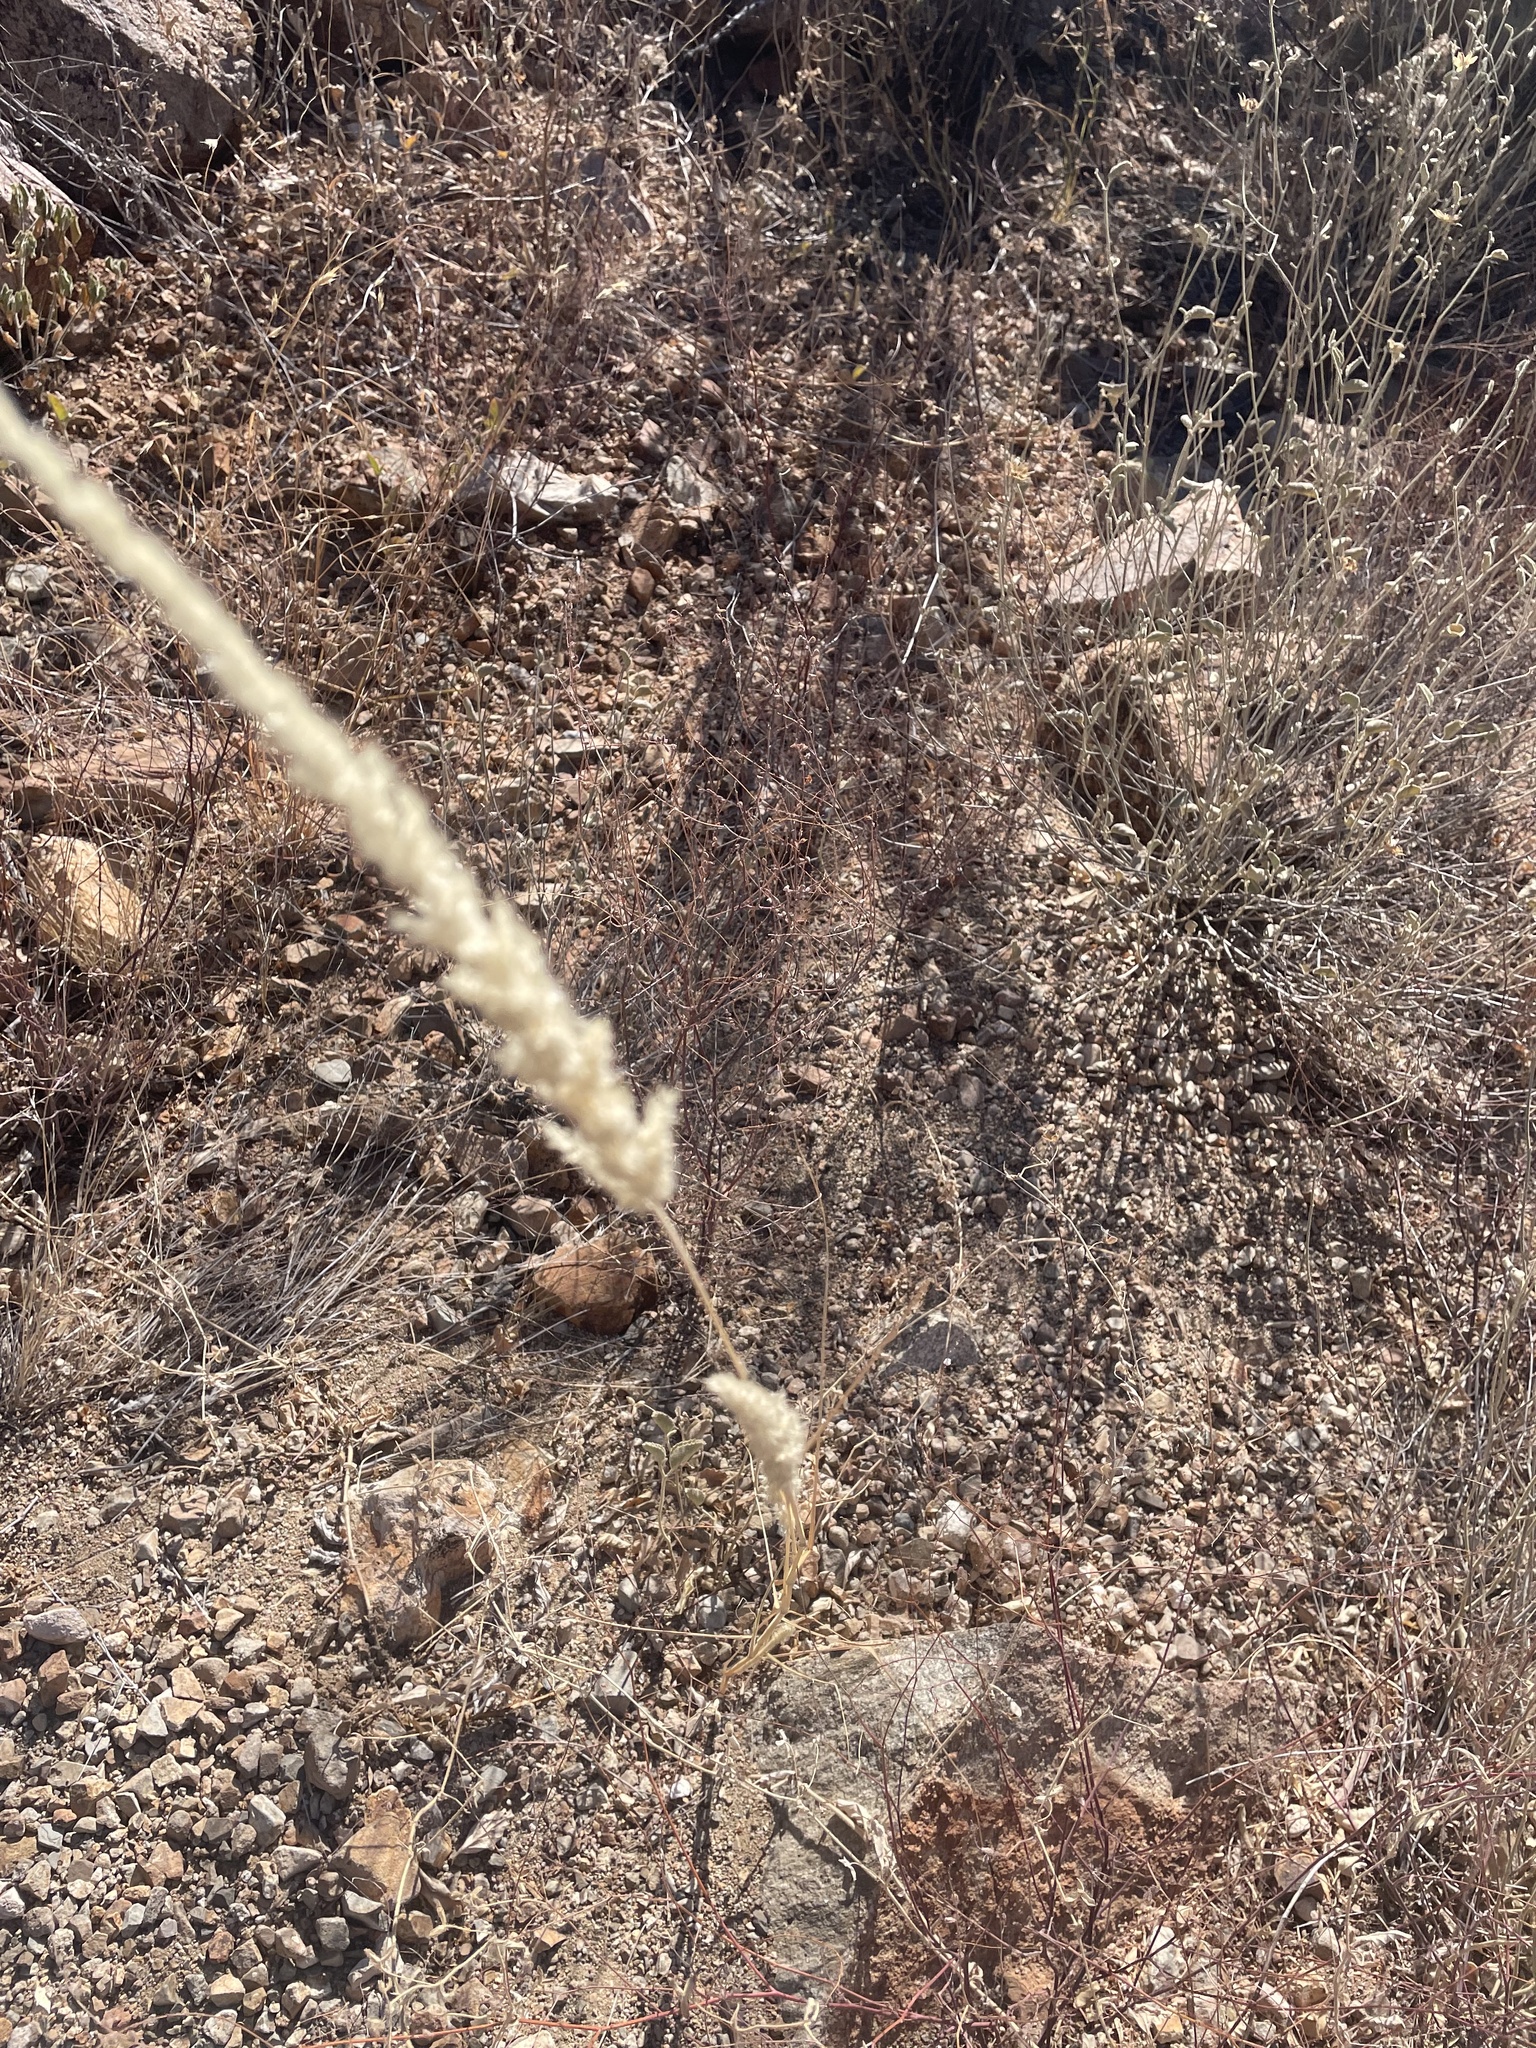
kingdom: Plantae
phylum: Tracheophyta
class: Liliopsida
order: Poales
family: Poaceae
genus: Enneapogon
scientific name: Enneapogon cenchroides
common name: Soft feather pappusgrass
